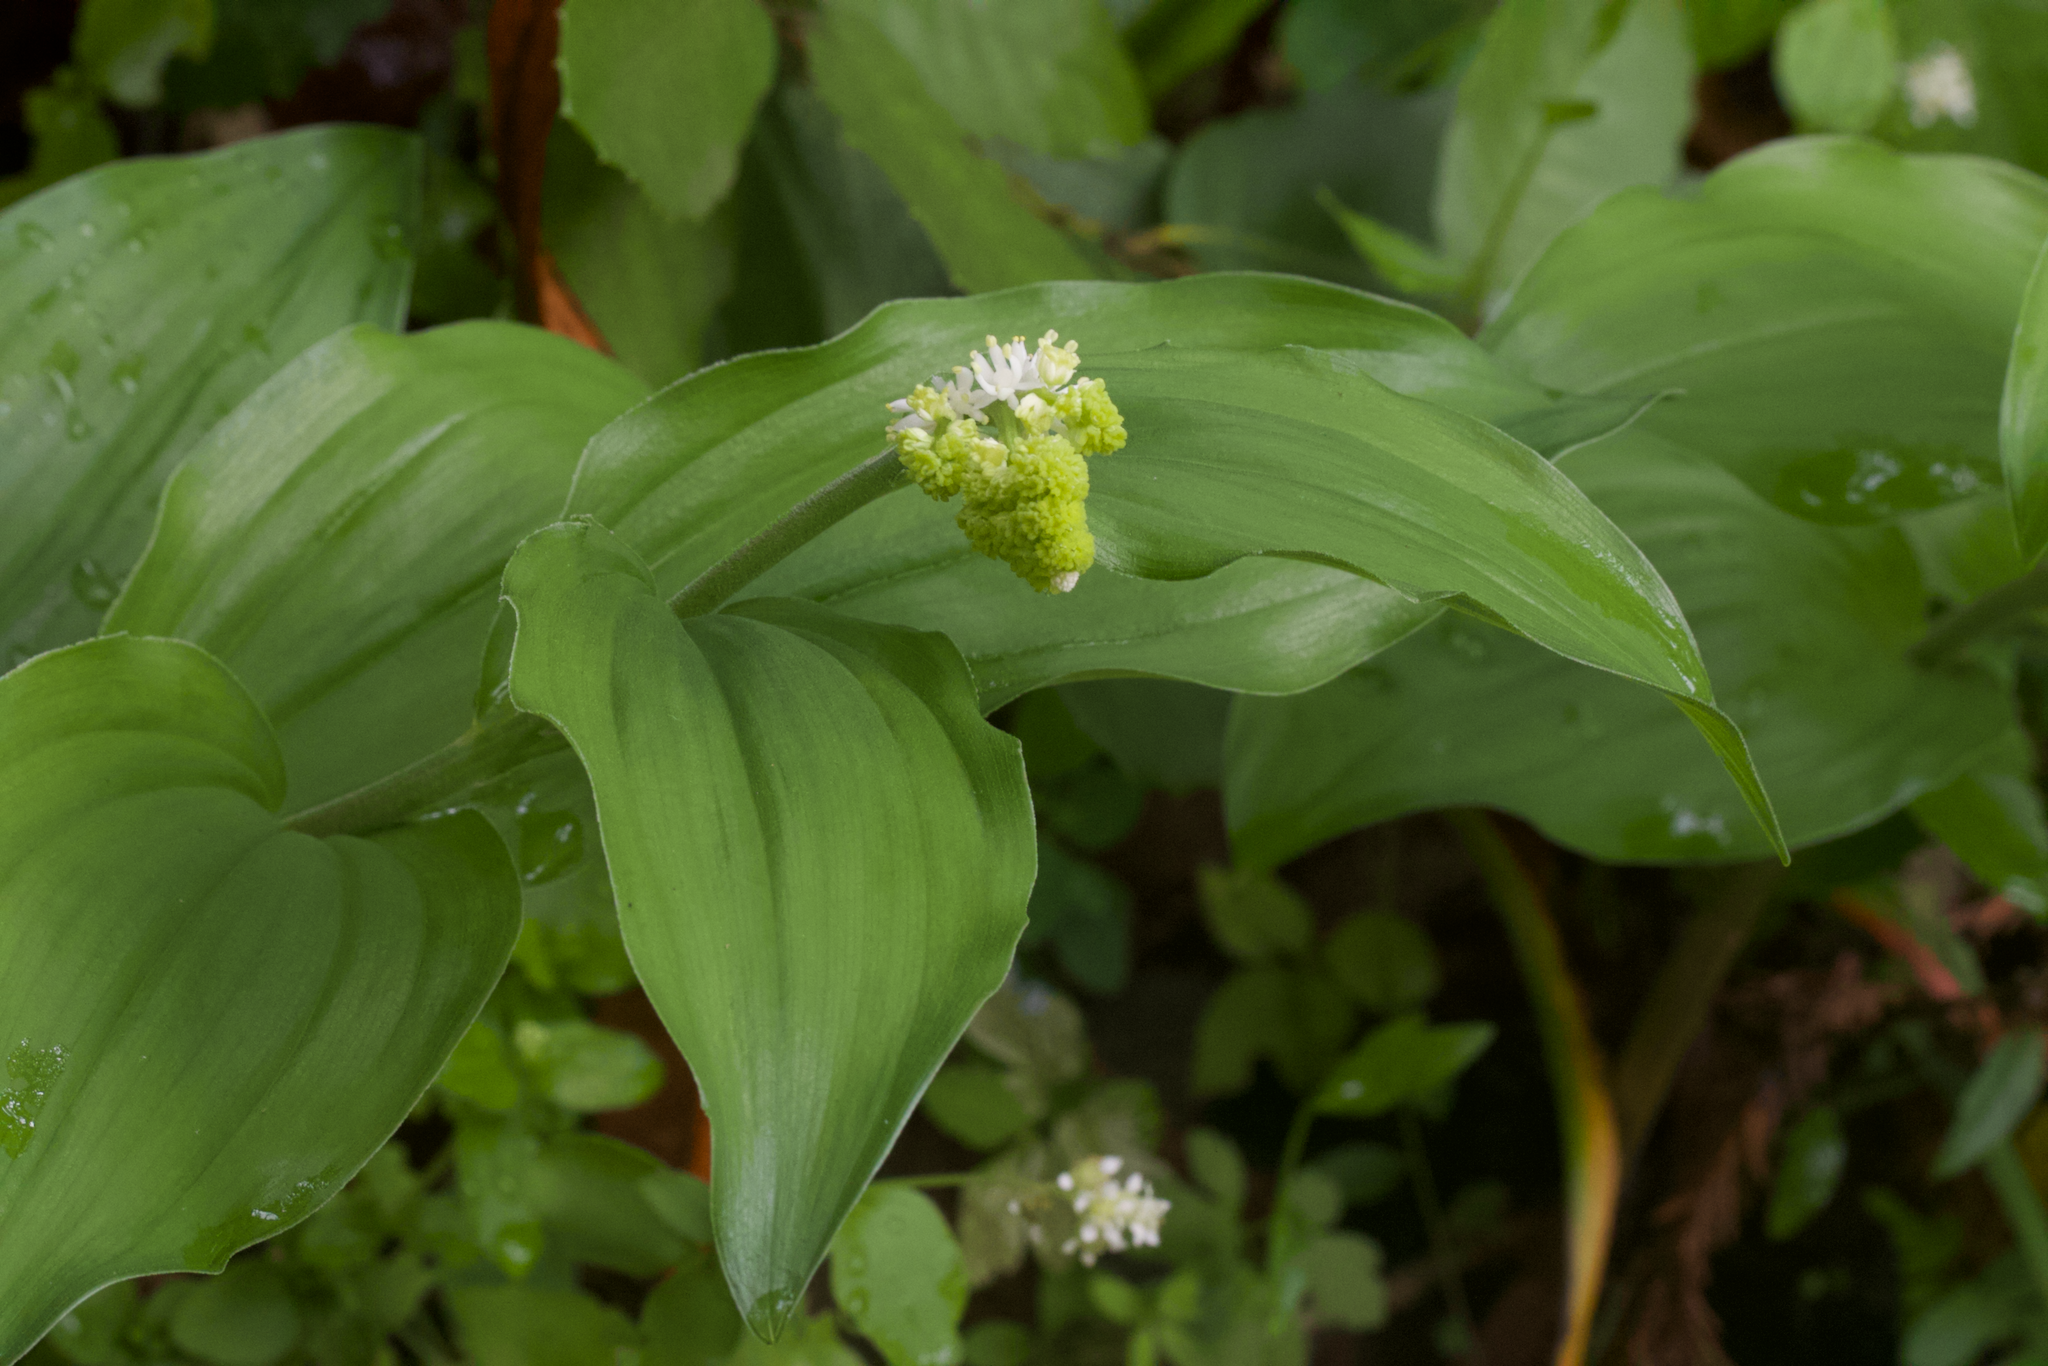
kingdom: Plantae
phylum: Tracheophyta
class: Liliopsida
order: Asparagales
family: Asparagaceae
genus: Maianthemum
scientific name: Maianthemum racemosum
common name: False spikenard
